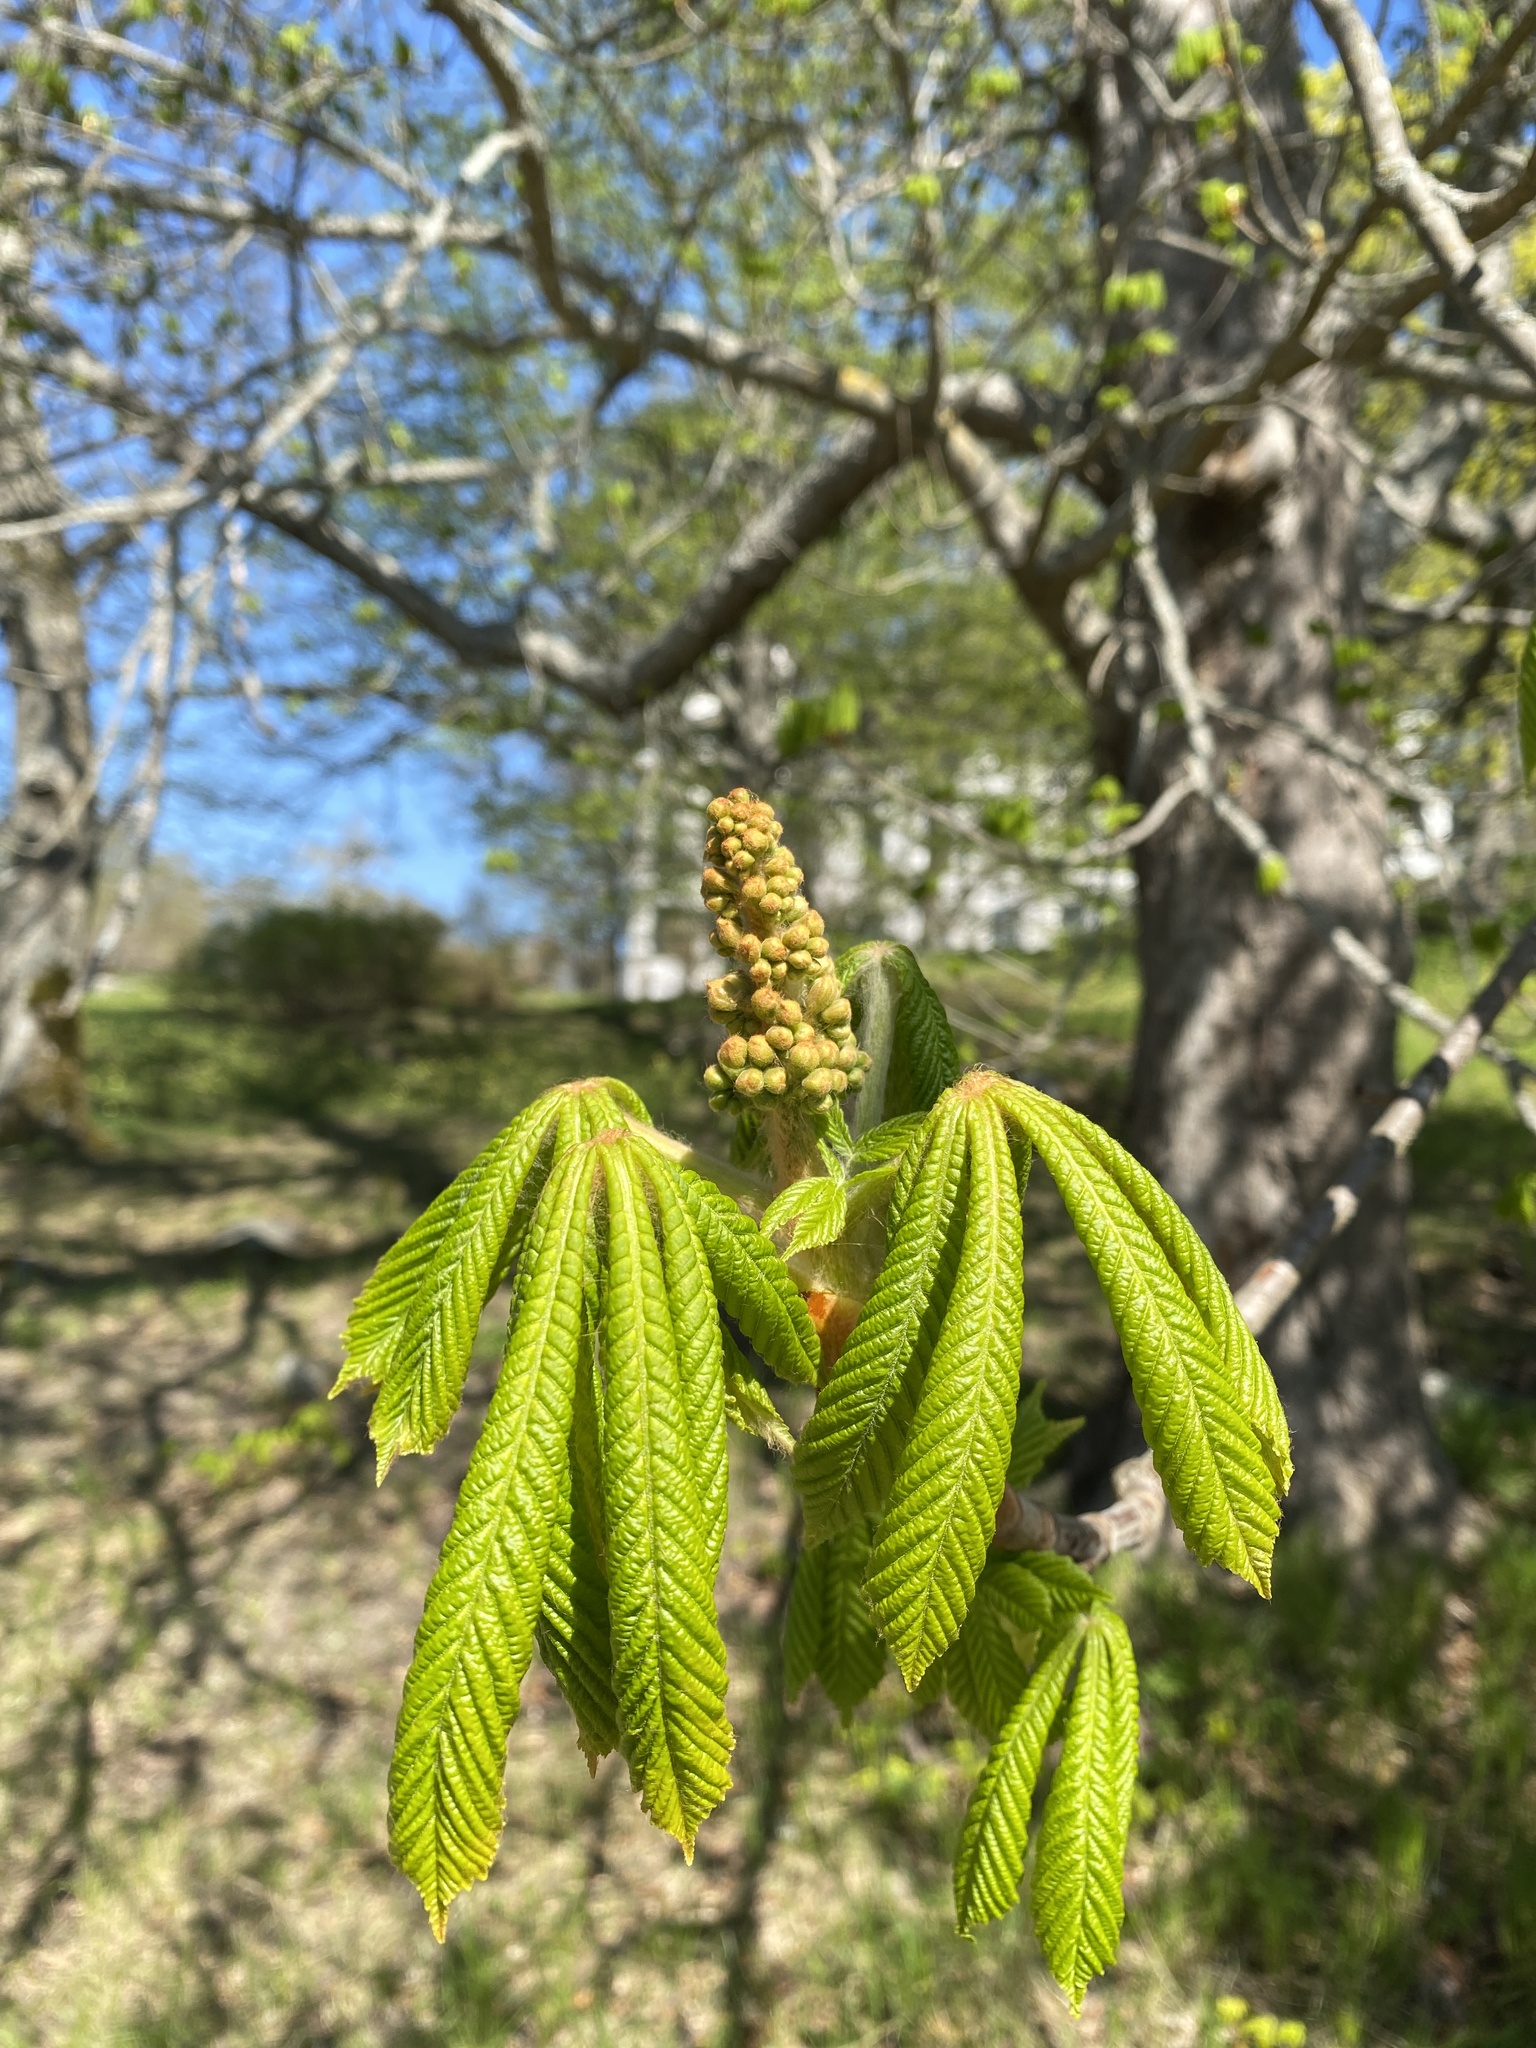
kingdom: Plantae
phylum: Tracheophyta
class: Magnoliopsida
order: Sapindales
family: Sapindaceae
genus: Aesculus
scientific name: Aesculus hippocastanum
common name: Horse-chestnut
